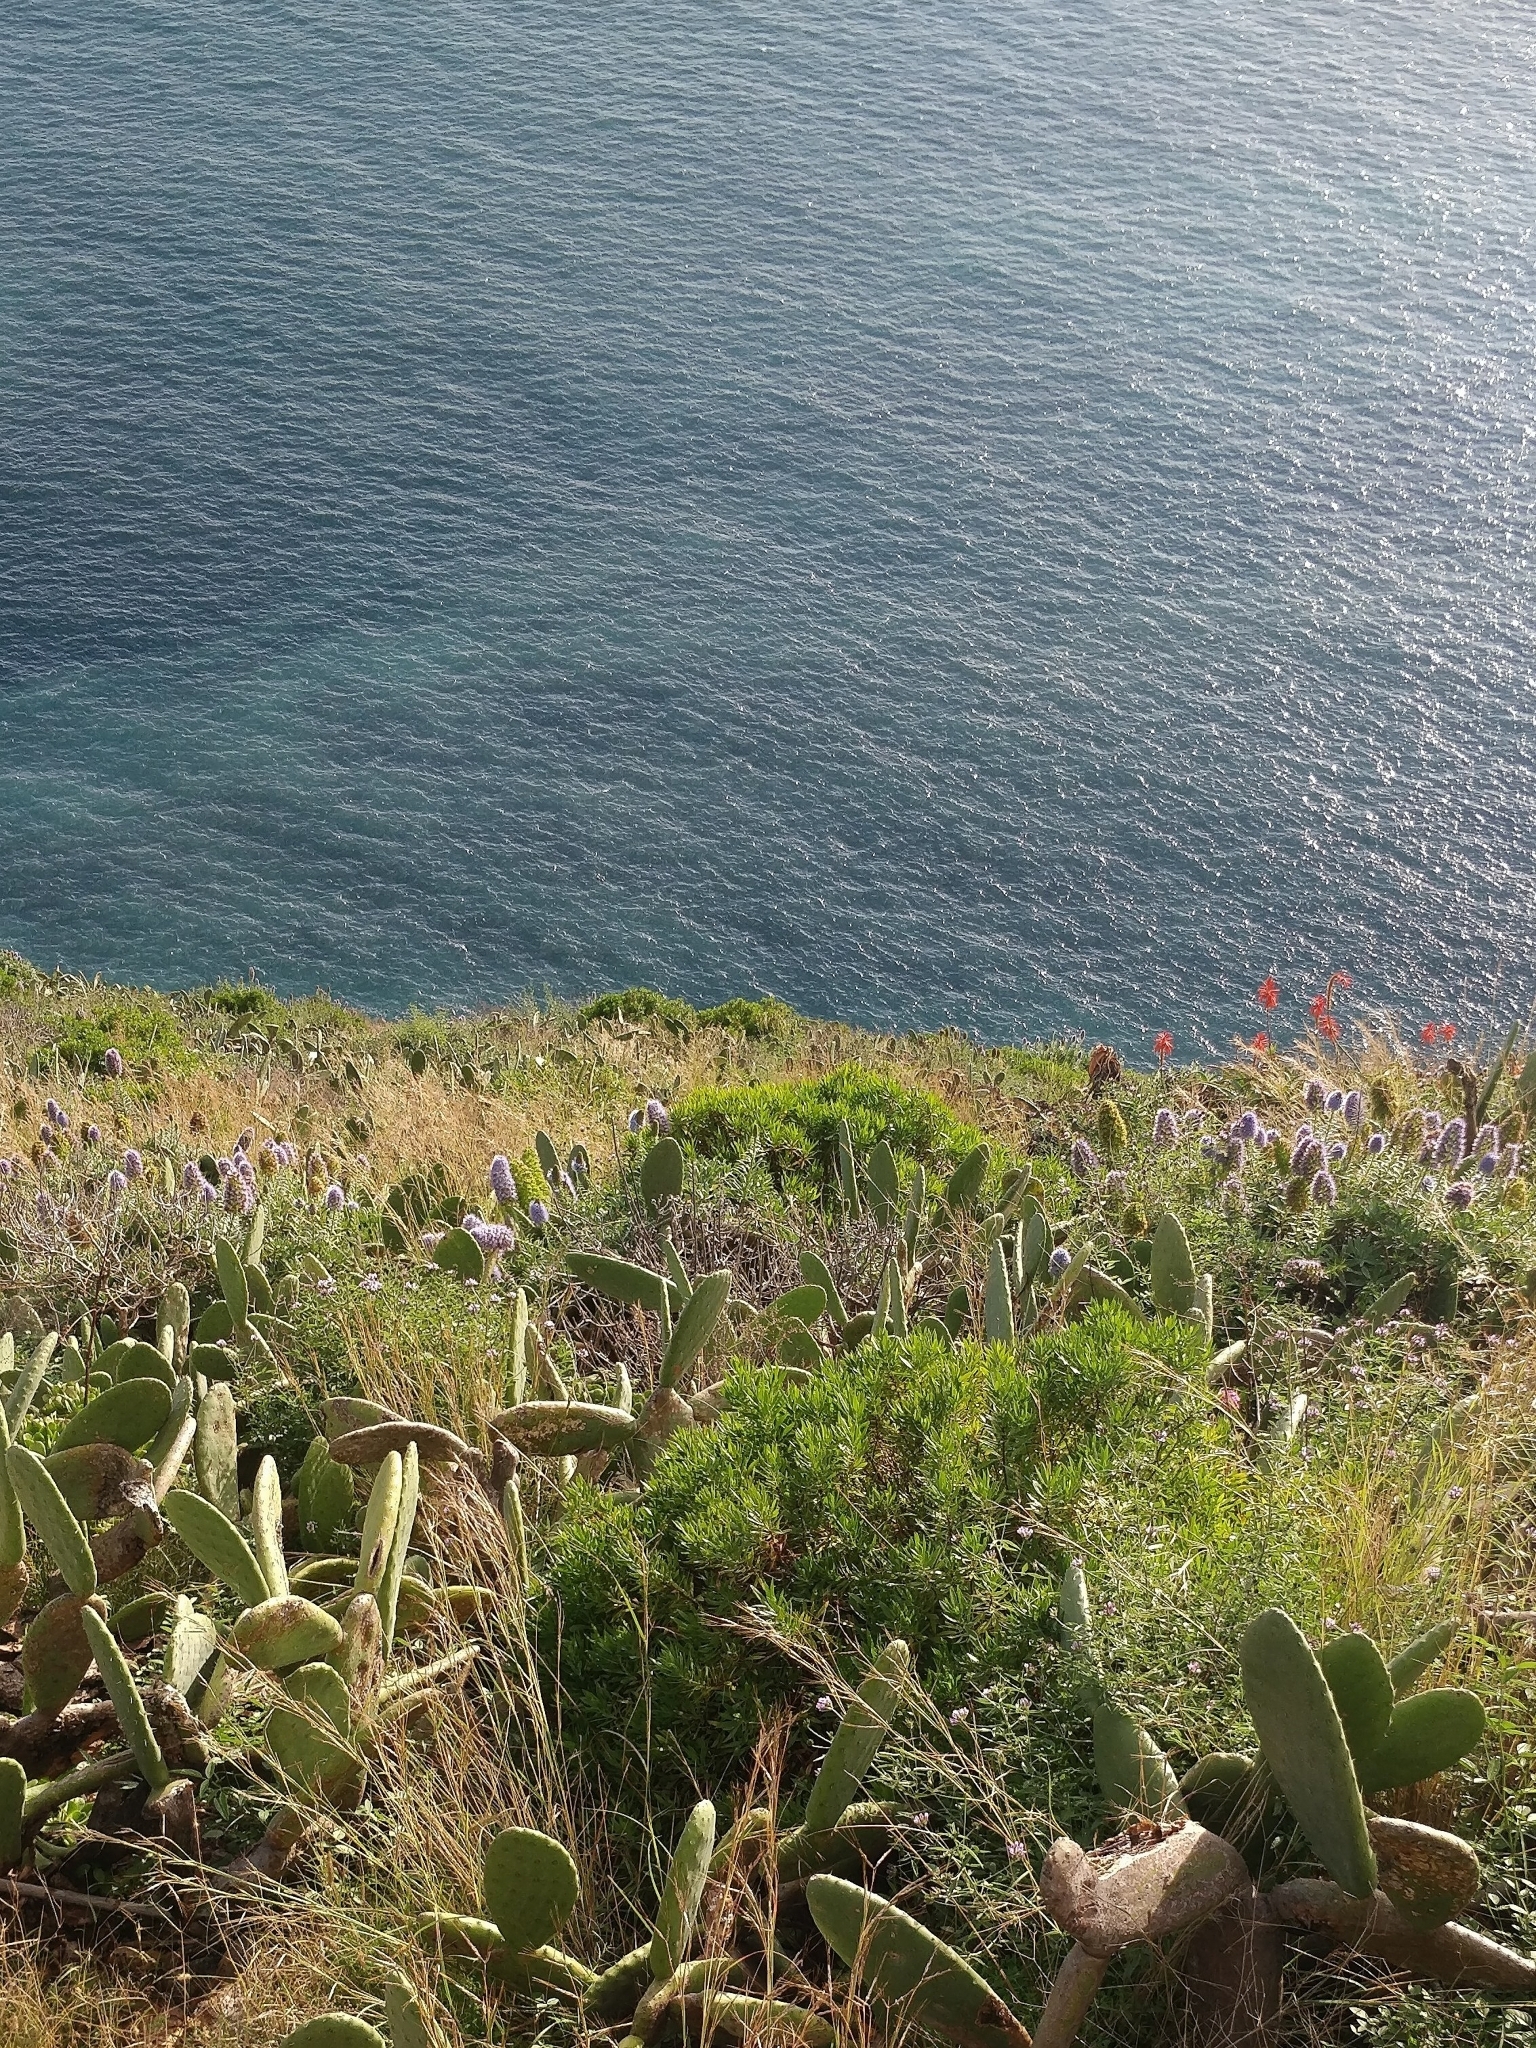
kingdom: Plantae
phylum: Tracheophyta
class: Magnoliopsida
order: Boraginales
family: Boraginaceae
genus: Echium
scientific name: Echium nervosum
